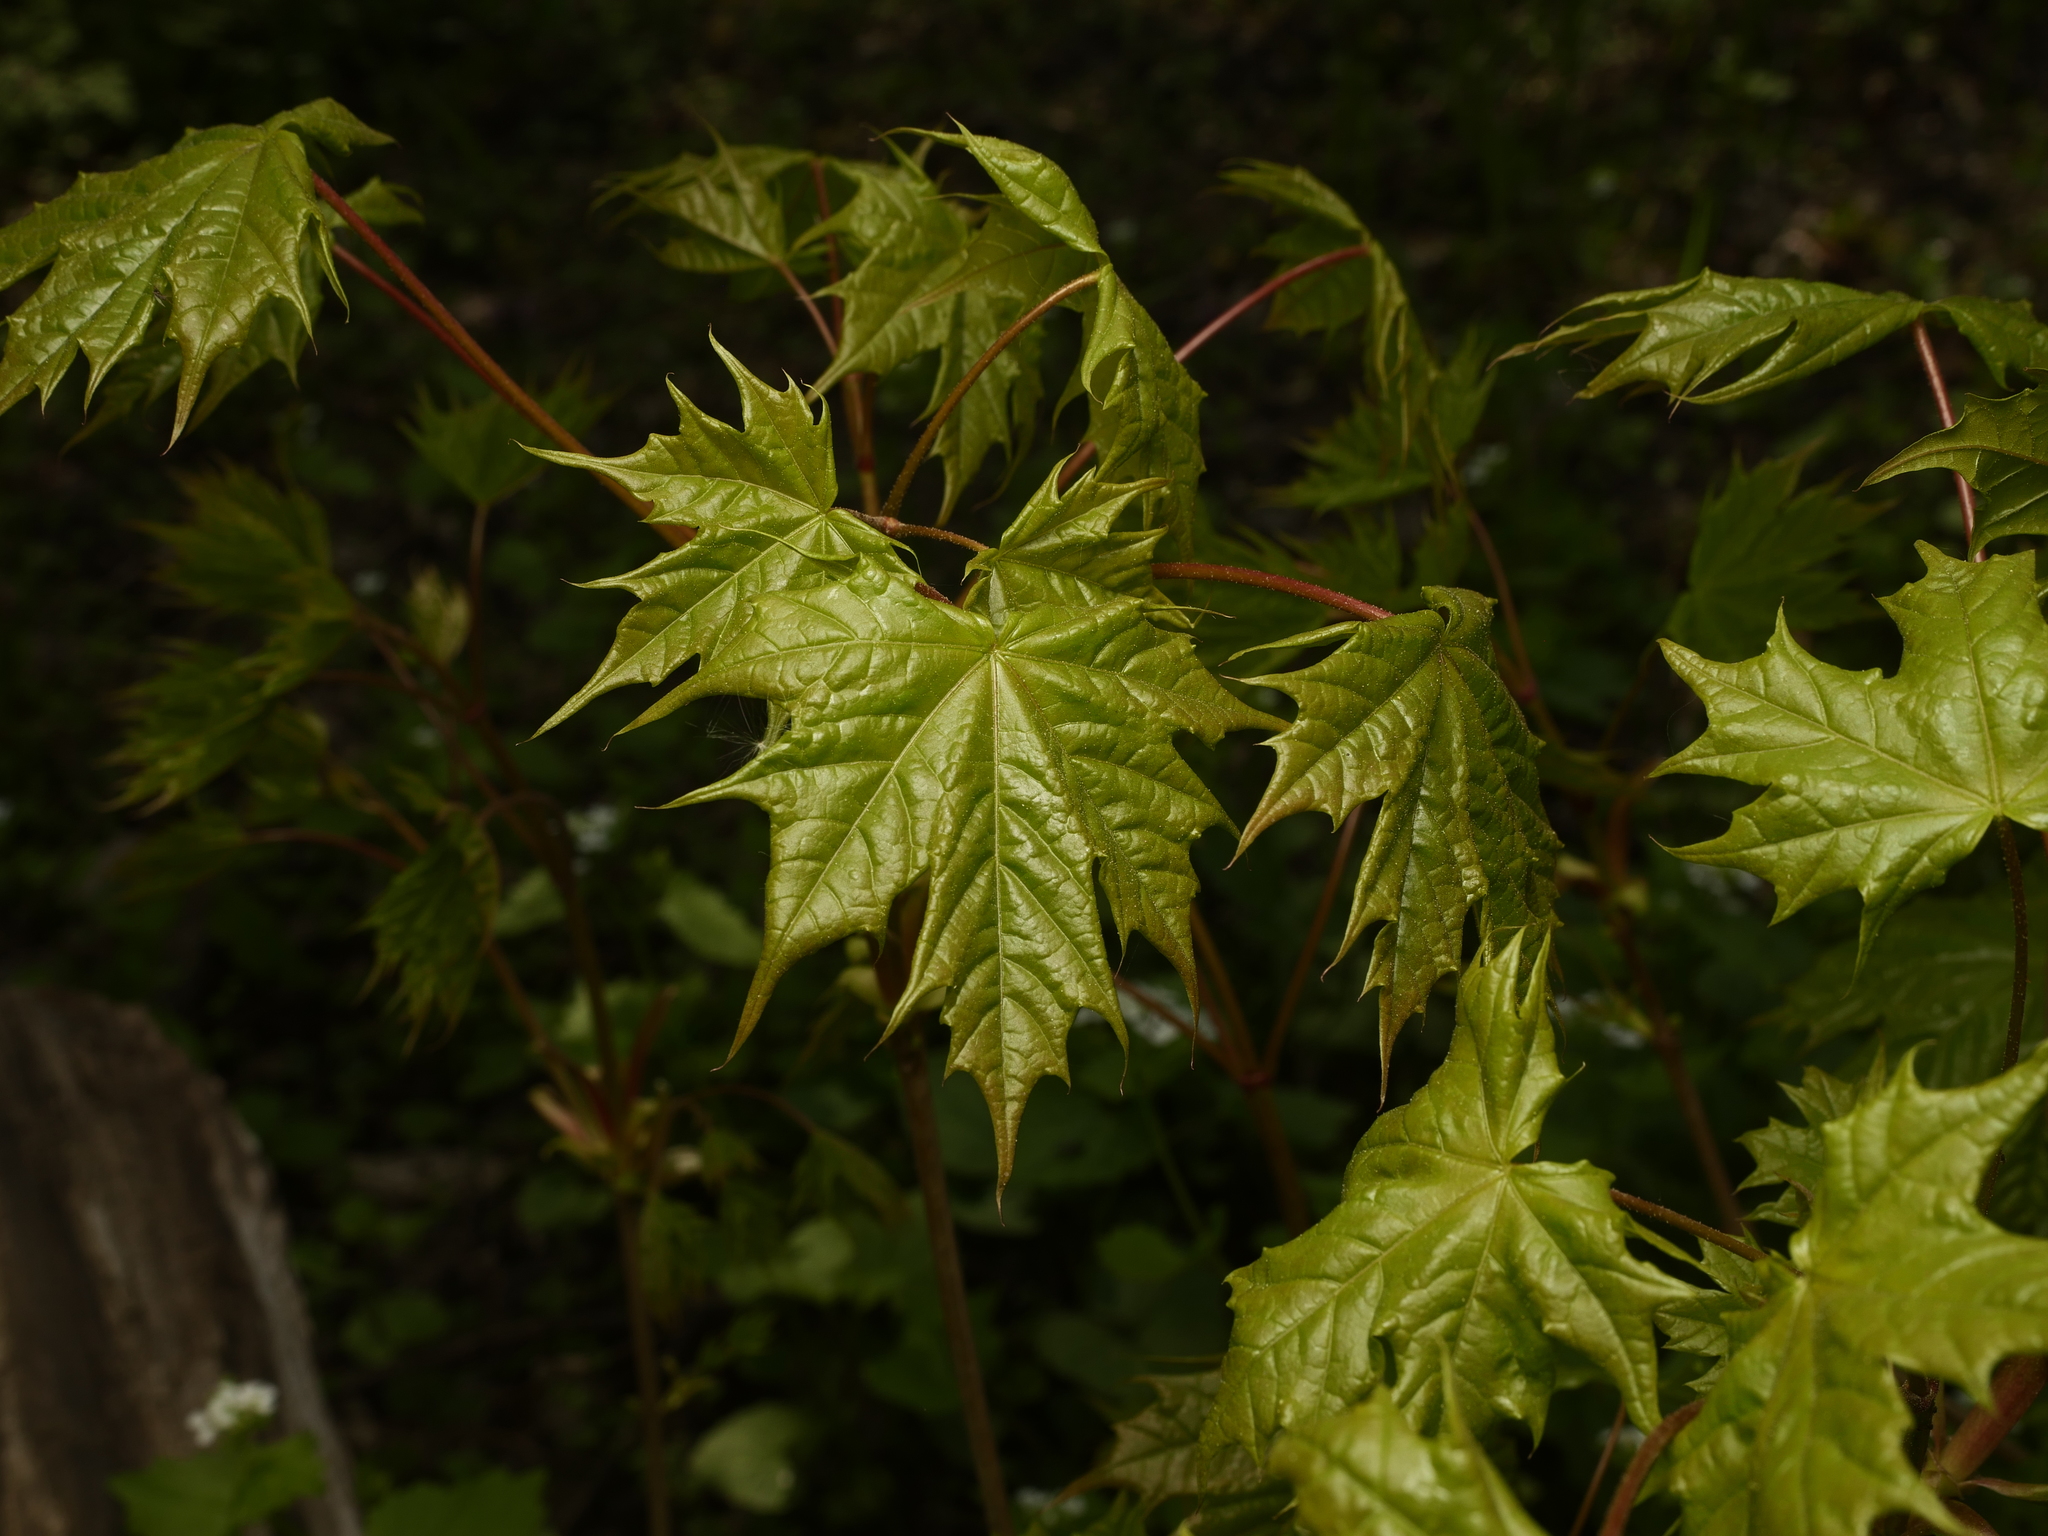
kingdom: Plantae
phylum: Tracheophyta
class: Magnoliopsida
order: Sapindales
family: Sapindaceae
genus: Acer
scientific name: Acer platanoides
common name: Norway maple
